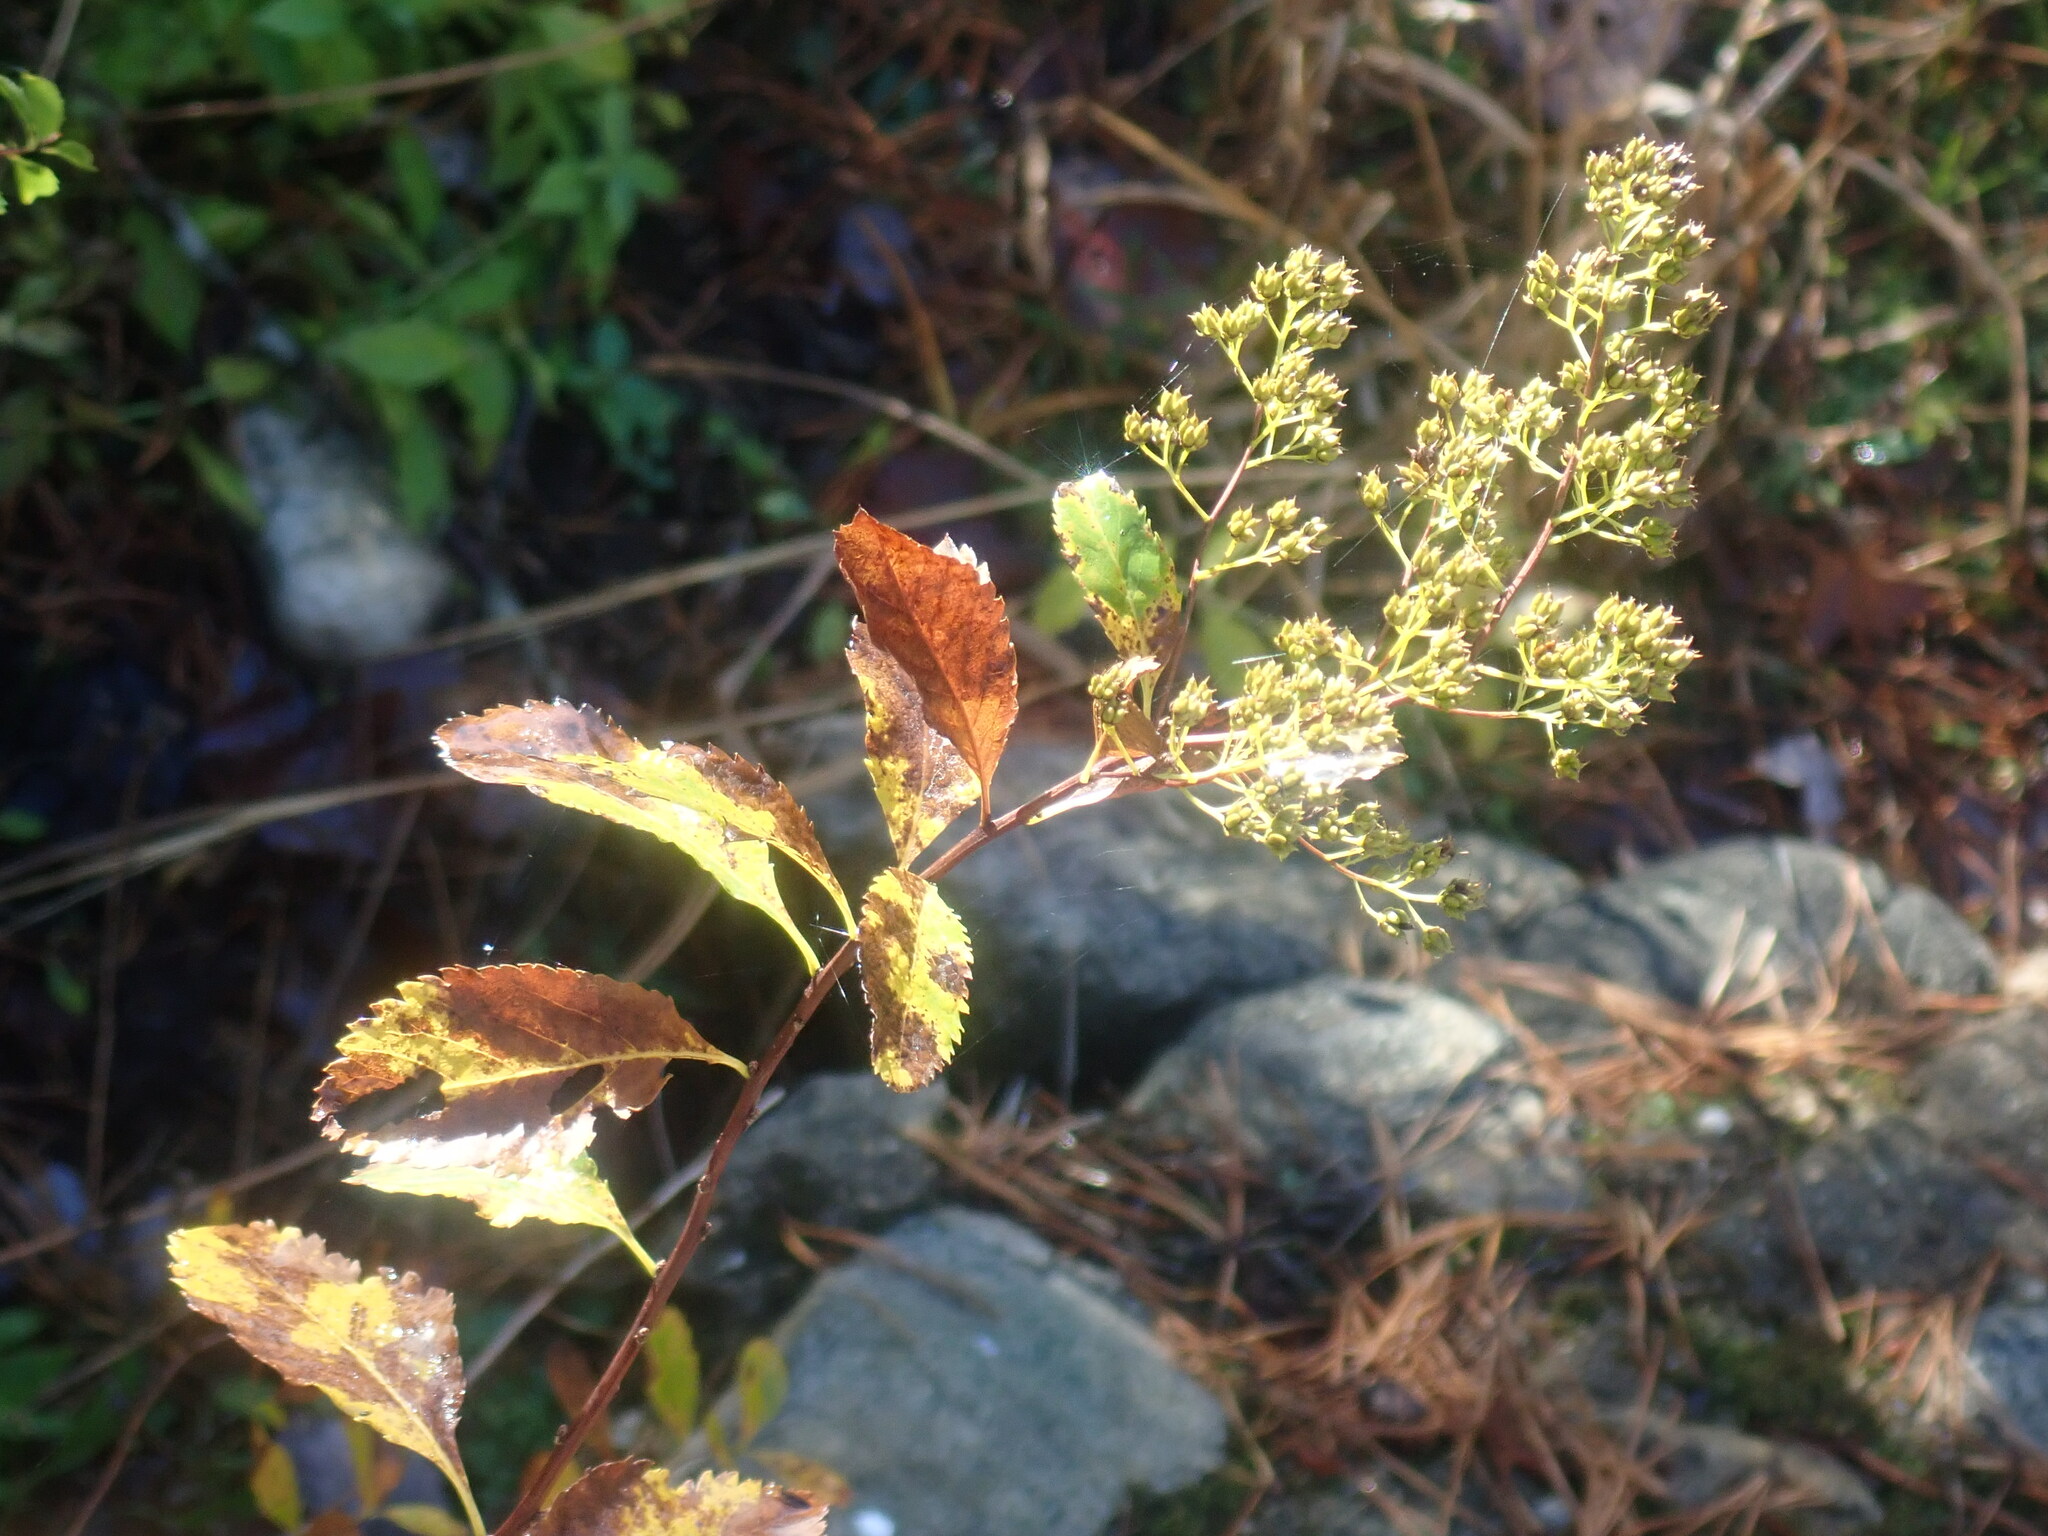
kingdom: Plantae
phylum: Tracheophyta
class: Magnoliopsida
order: Rosales
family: Rosaceae
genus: Spiraea
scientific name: Spiraea alba
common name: Pale bridewort
